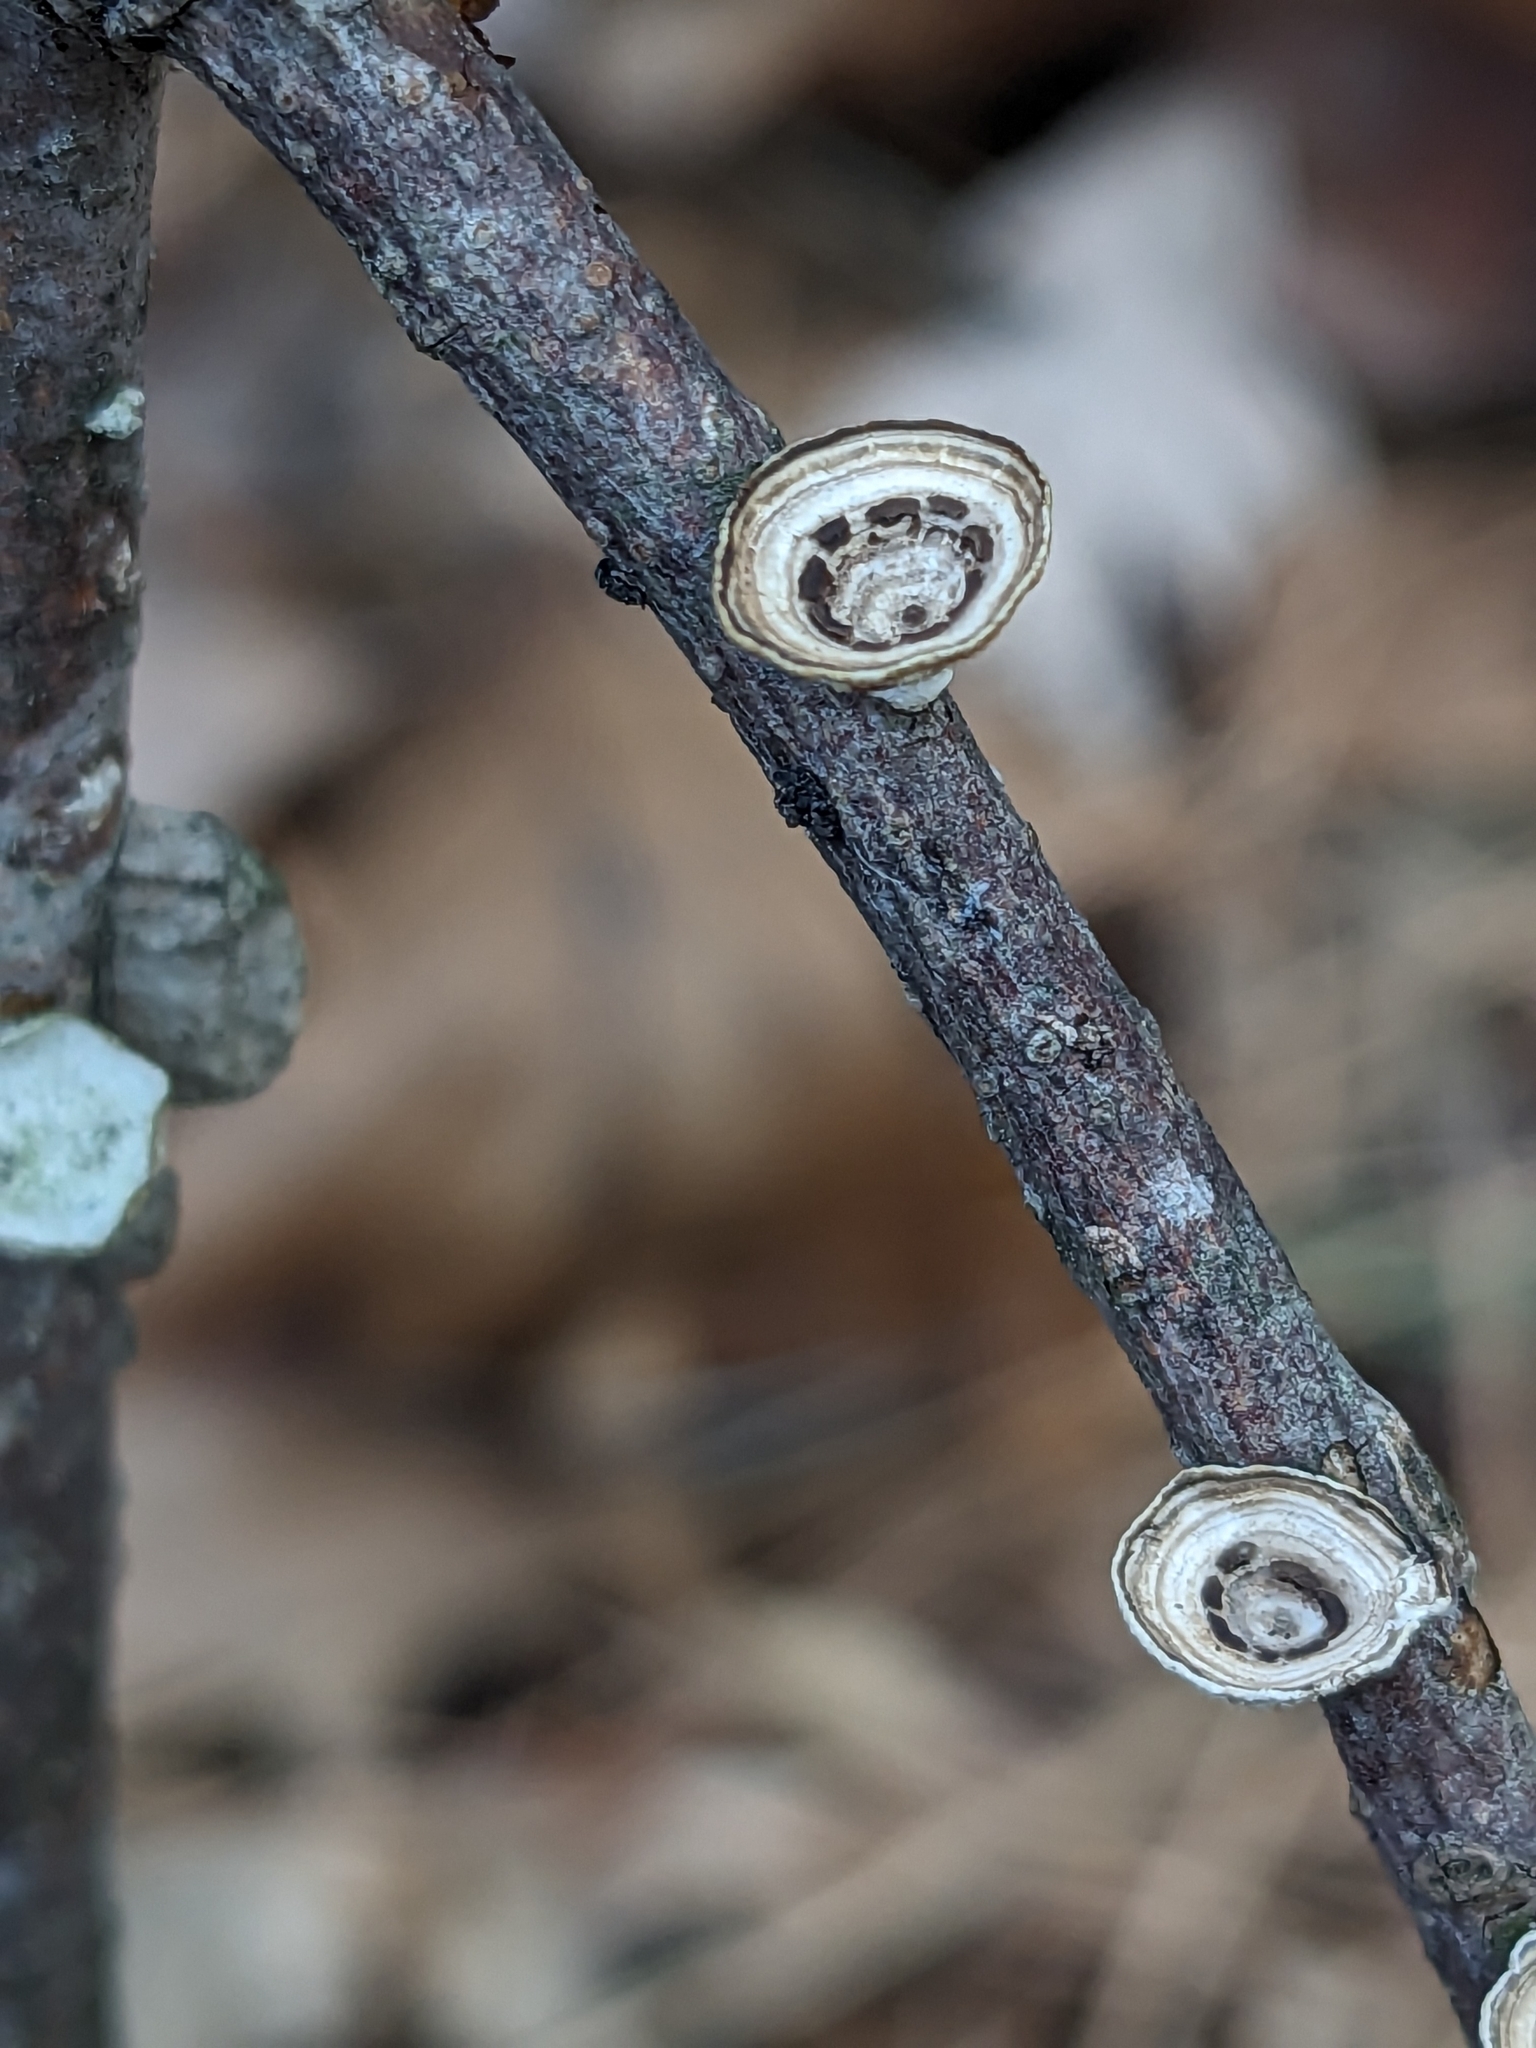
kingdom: Fungi
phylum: Basidiomycota
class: Agaricomycetes
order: Polyporales
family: Polyporaceae
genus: Poronidulus
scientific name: Poronidulus conchifer
